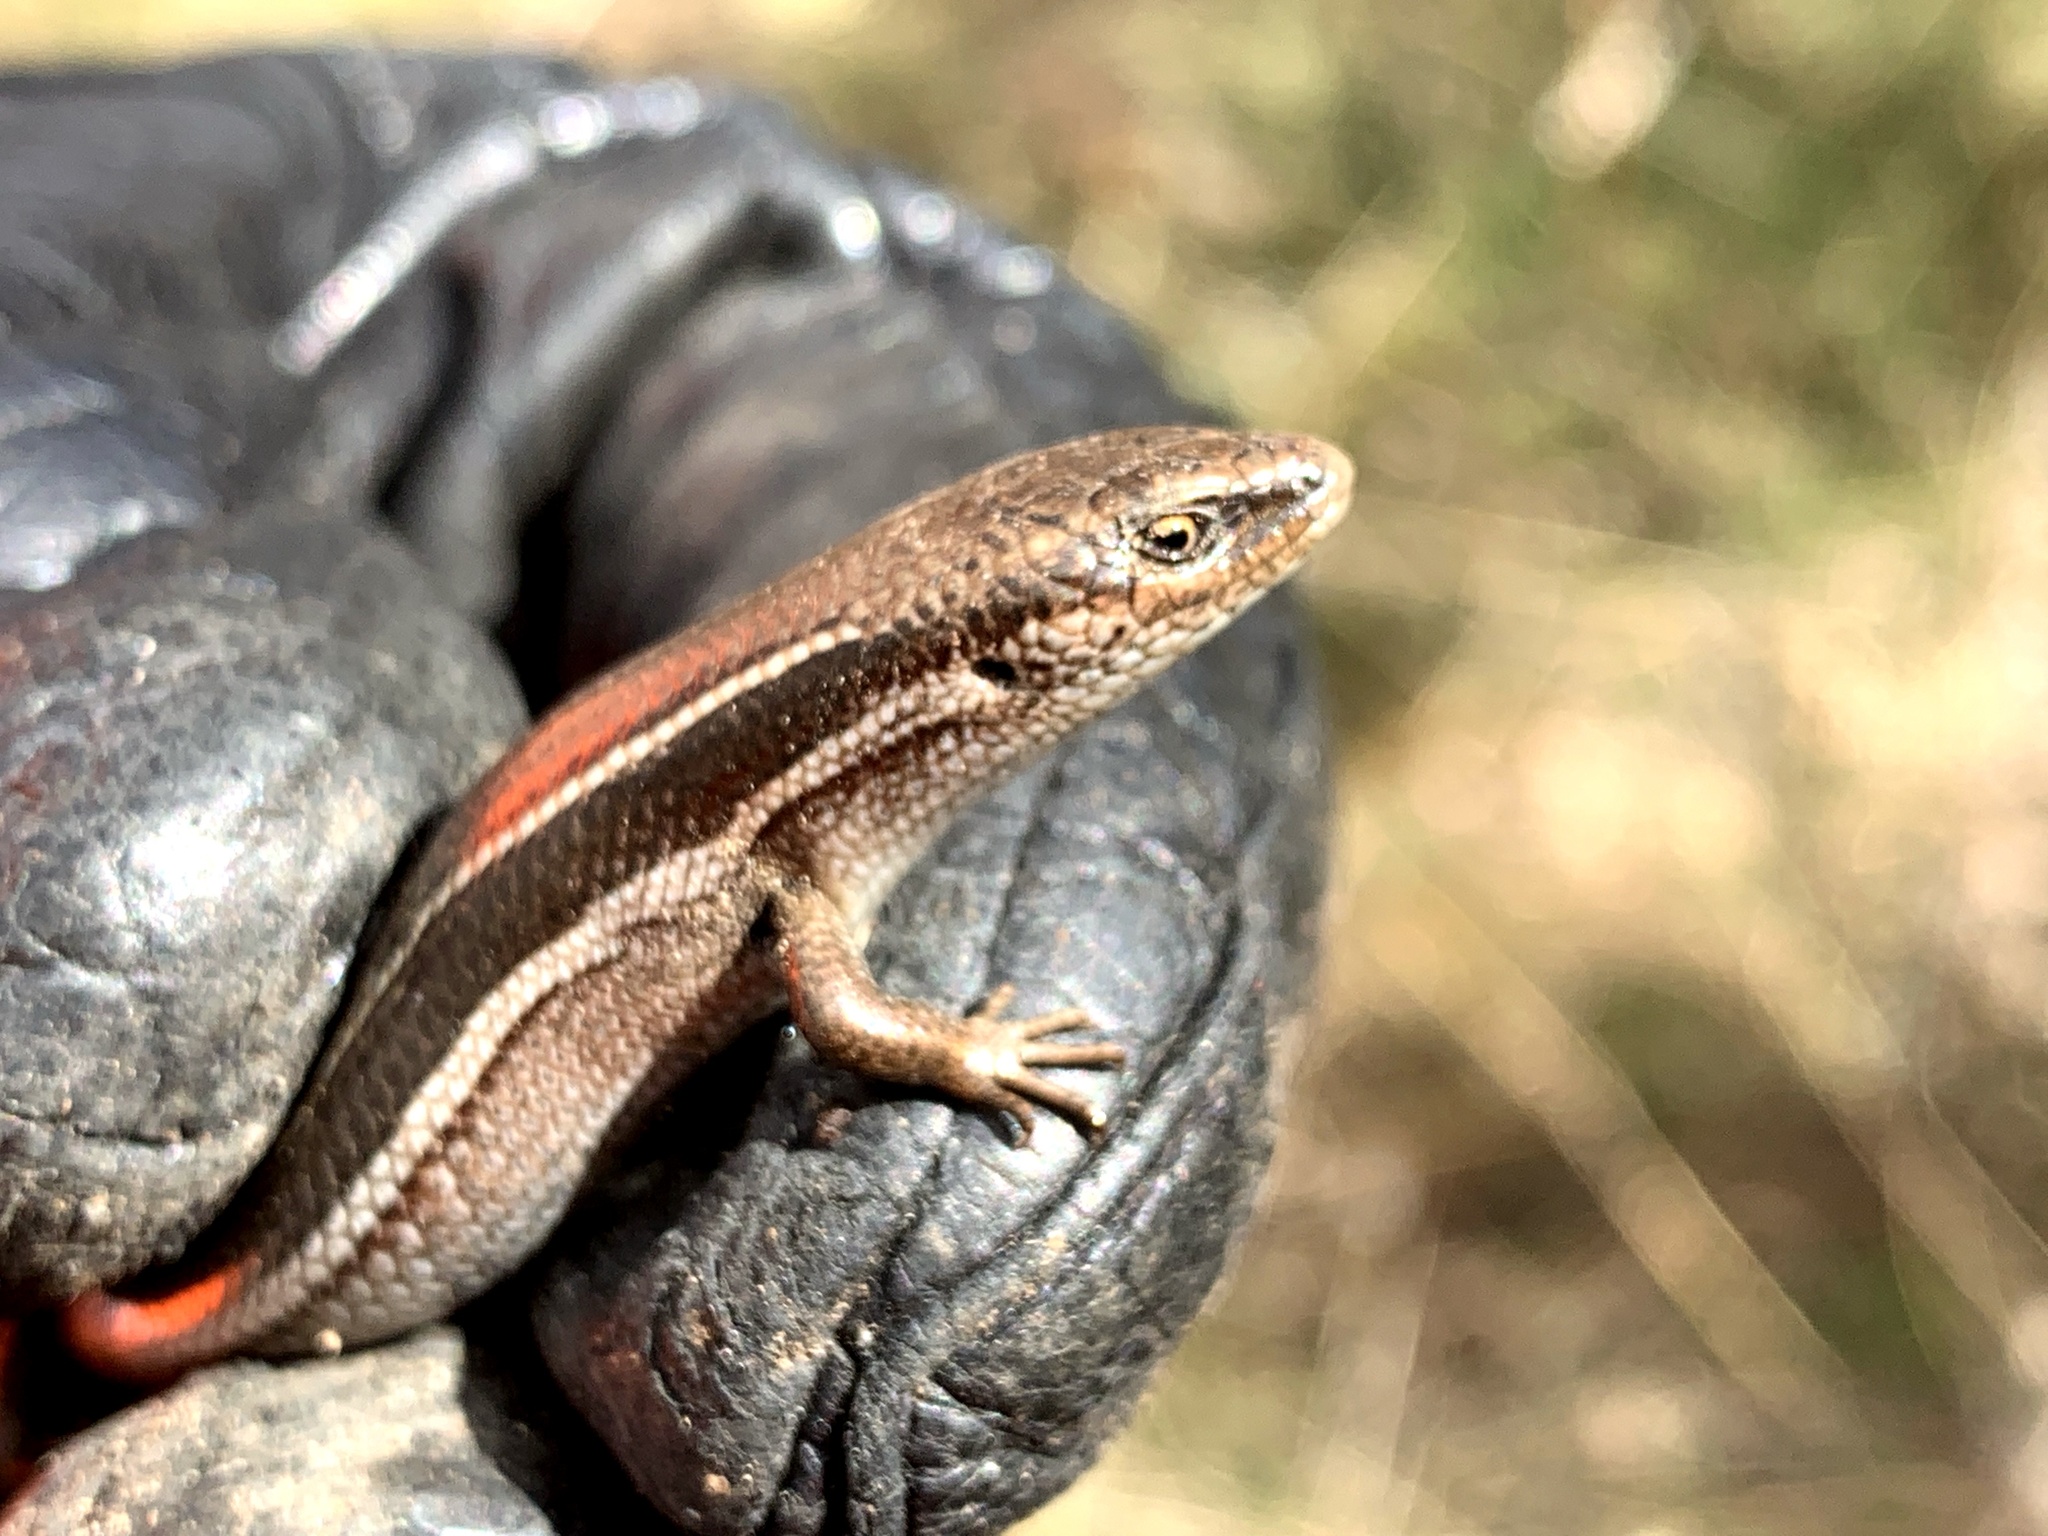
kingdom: Animalia
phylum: Chordata
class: Squamata
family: Scincidae
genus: Acritoscincus
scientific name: Acritoscincus duperreyi
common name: Bold-striped cool-skink
